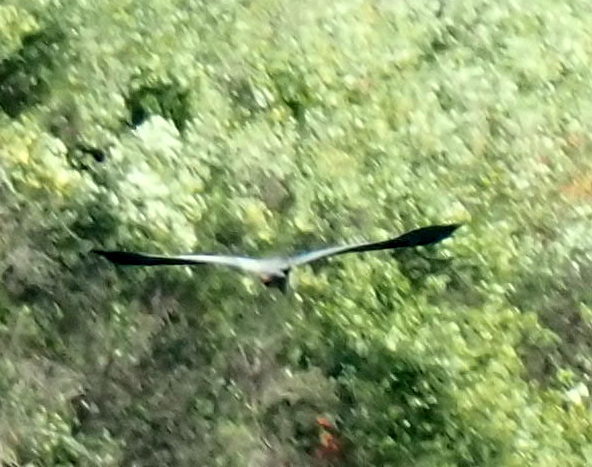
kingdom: Animalia
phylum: Chordata
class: Aves
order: Pelecaniformes
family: Ardeidae
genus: Ardea
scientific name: Ardea herodias
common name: Great blue heron
